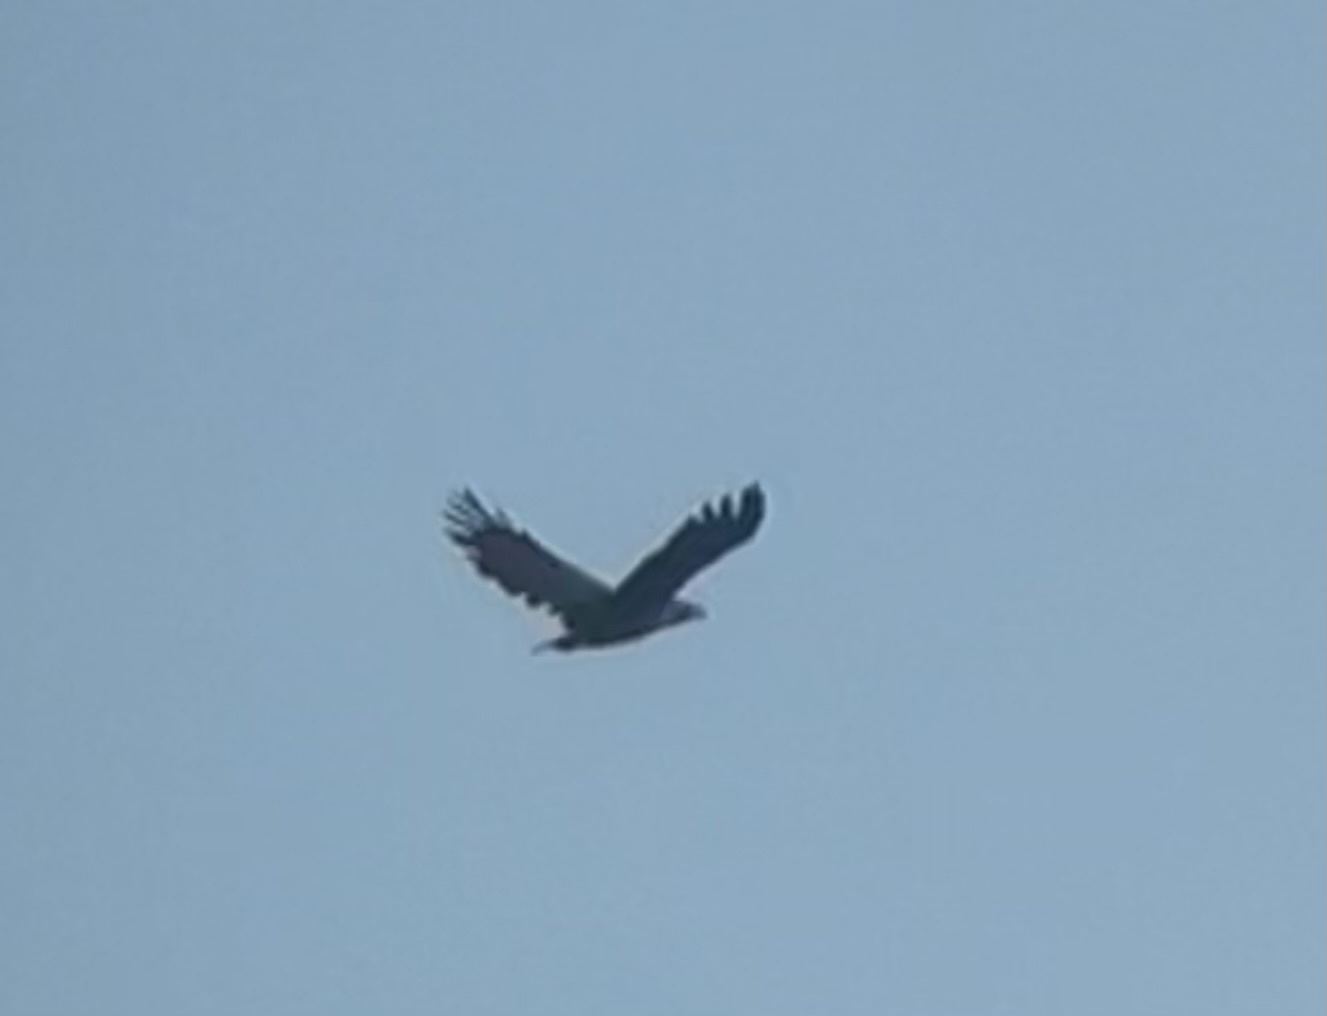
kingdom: Animalia
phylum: Chordata
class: Aves
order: Accipitriformes
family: Accipitridae
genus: Haliaeetus
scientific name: Haliaeetus albicilla
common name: White-tailed eagle
